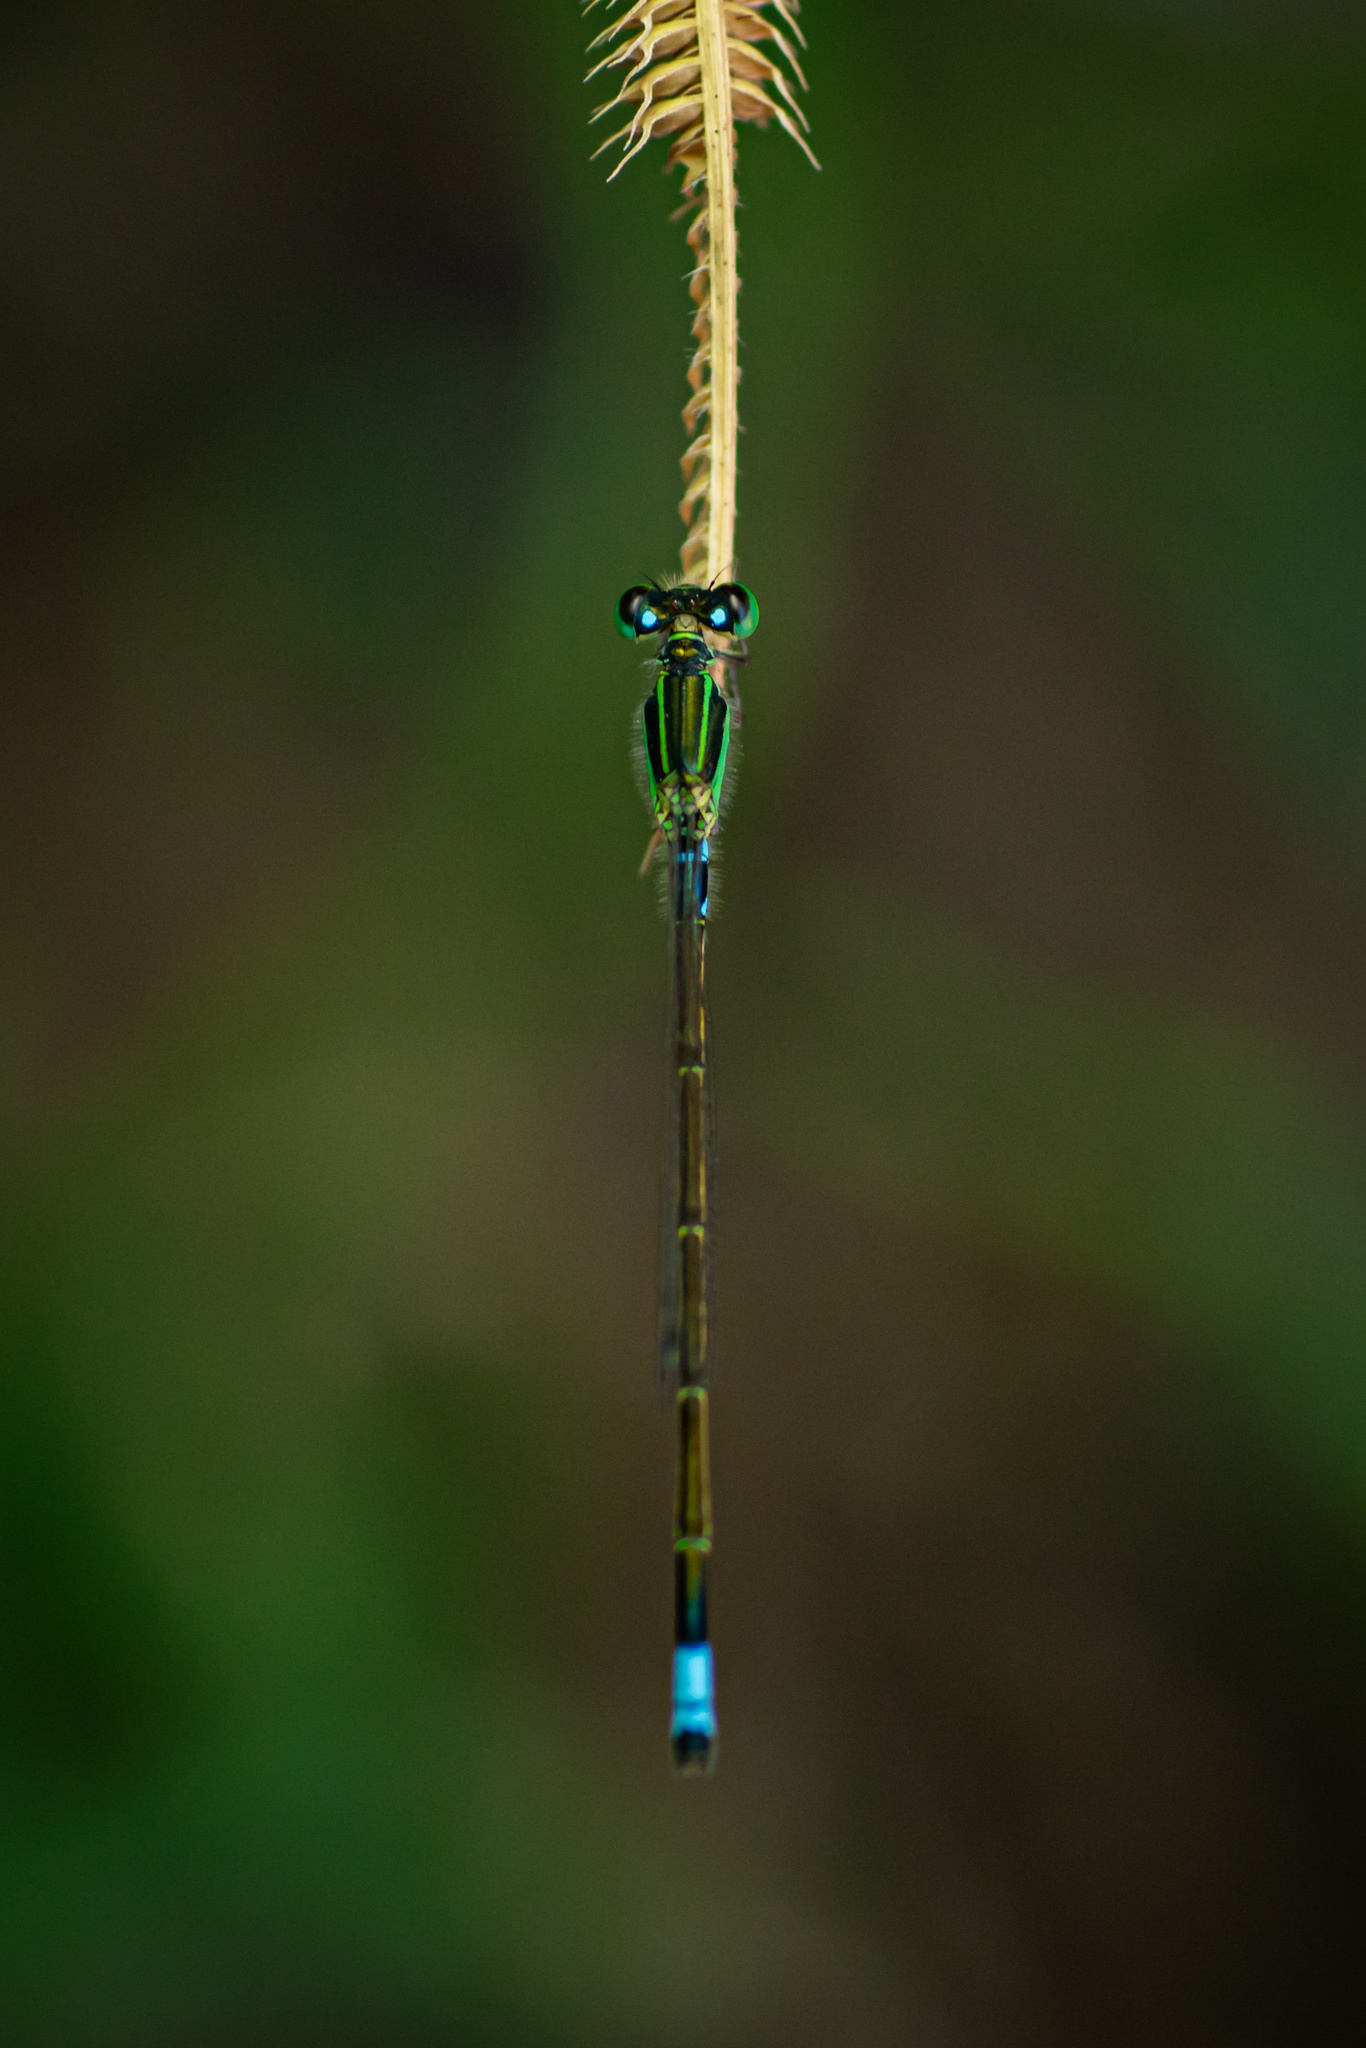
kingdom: Animalia
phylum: Arthropoda
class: Insecta
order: Odonata
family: Coenagrionidae
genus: Ischnura
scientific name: Ischnura senegalensis
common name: Tropical bluetail
